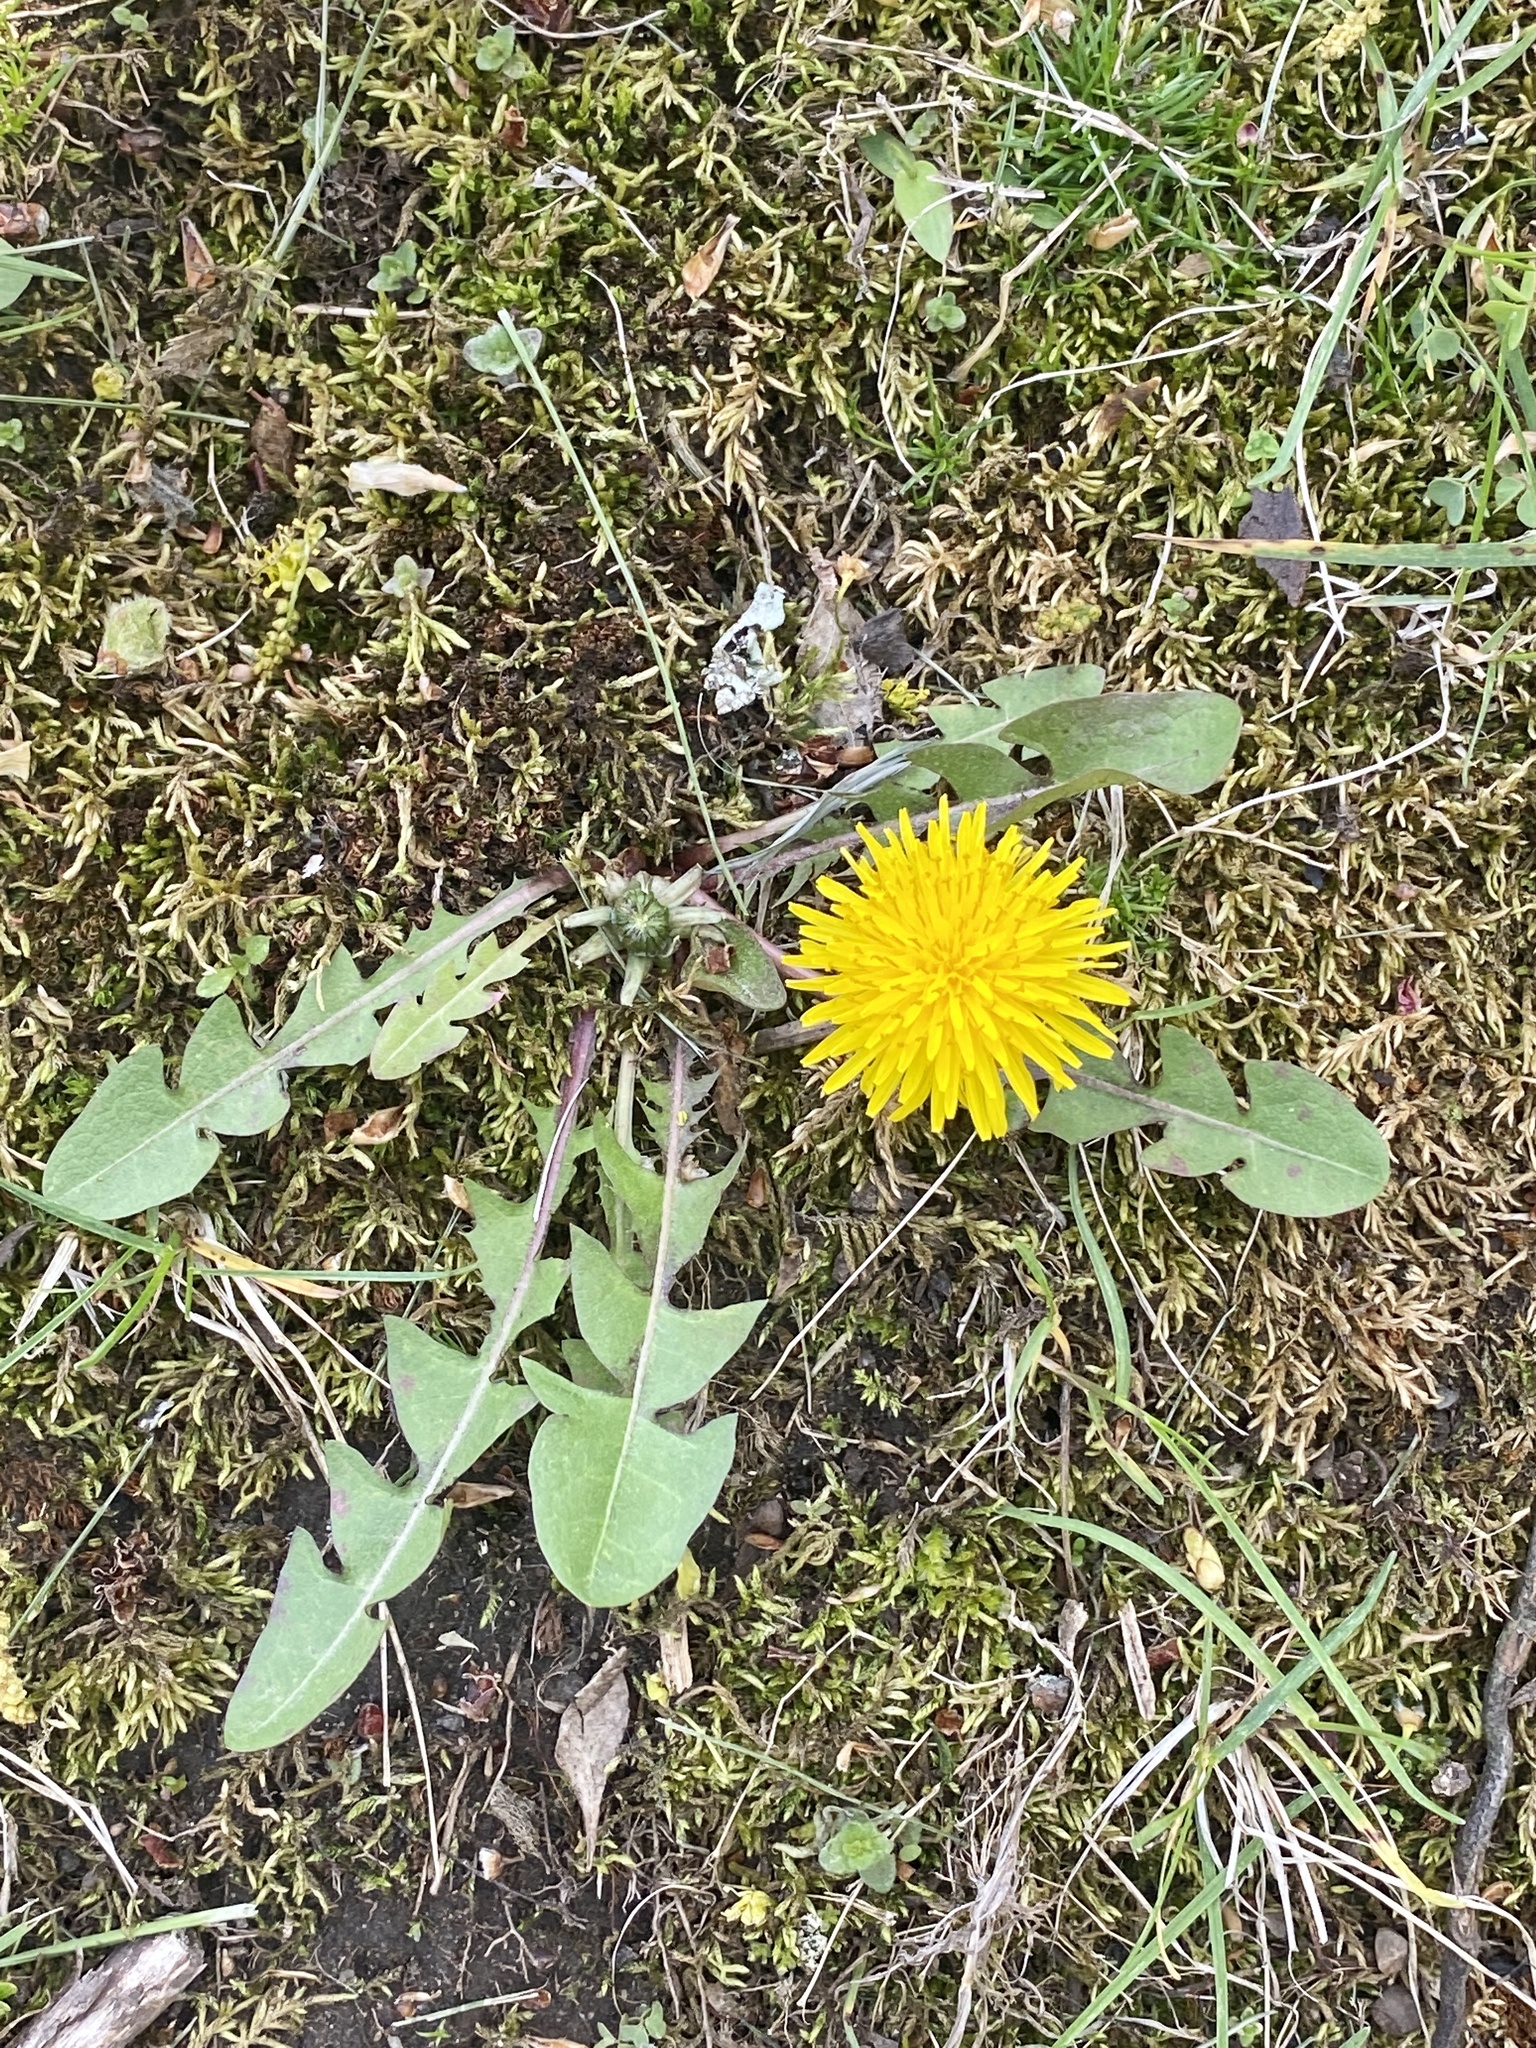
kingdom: Plantae
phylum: Tracheophyta
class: Magnoliopsida
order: Asterales
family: Asteraceae
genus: Taraxacum
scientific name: Taraxacum officinale
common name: Common dandelion
